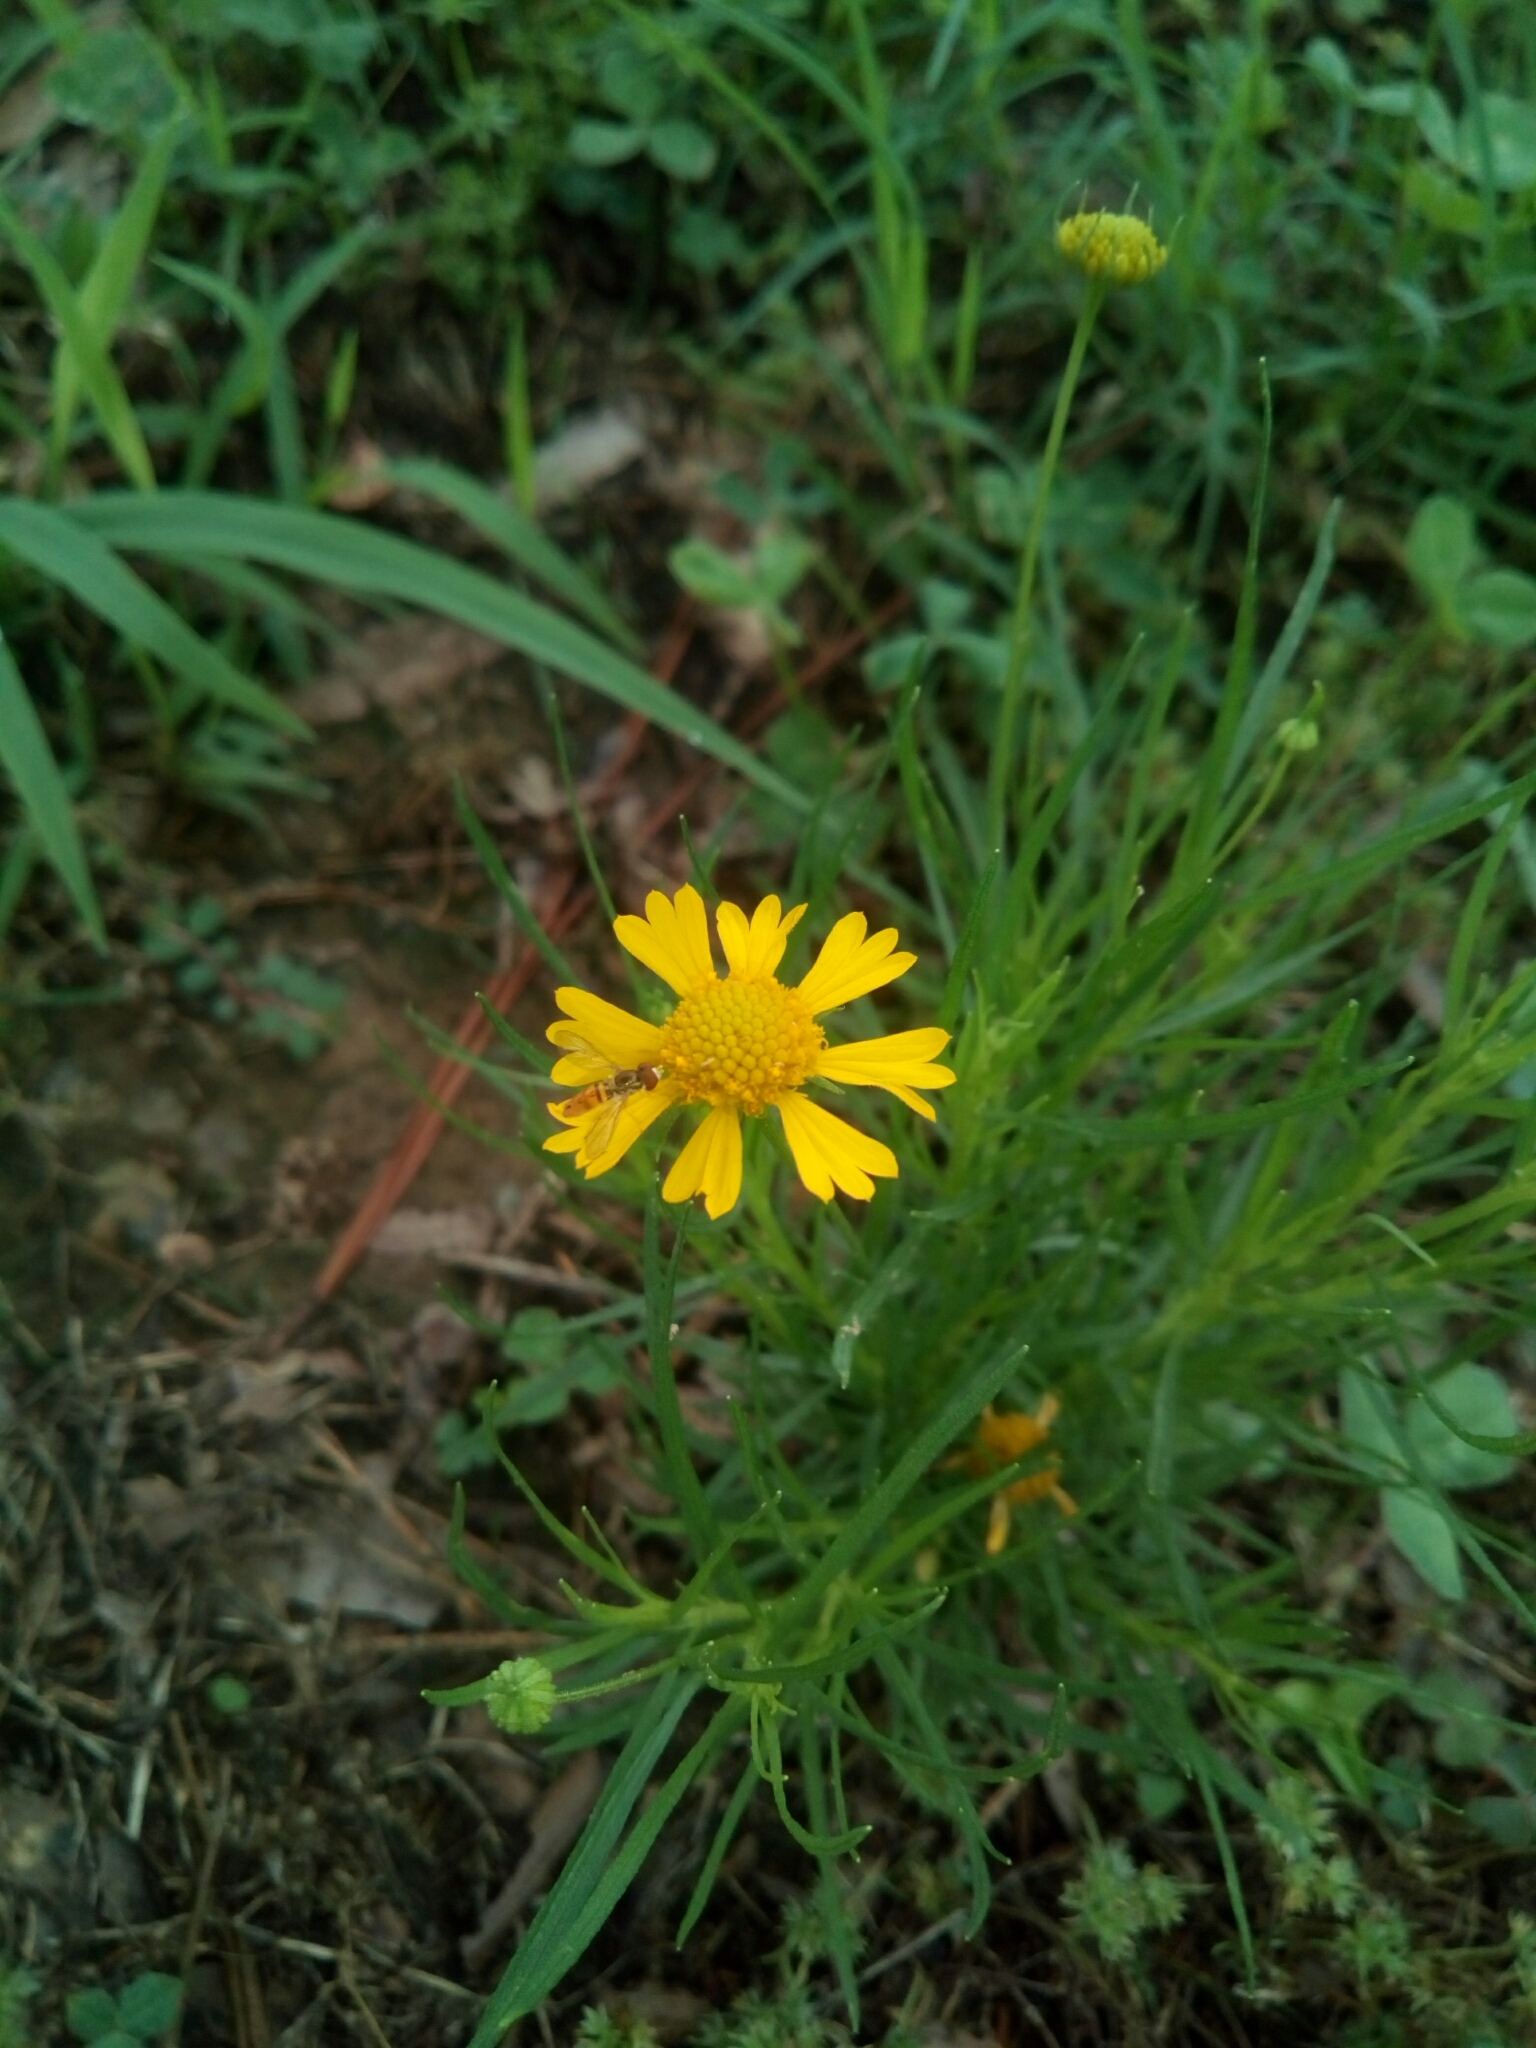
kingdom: Animalia
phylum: Arthropoda
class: Insecta
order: Diptera
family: Syrphidae
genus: Toxomerus
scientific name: Toxomerus marginatus
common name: Syrphid fly
